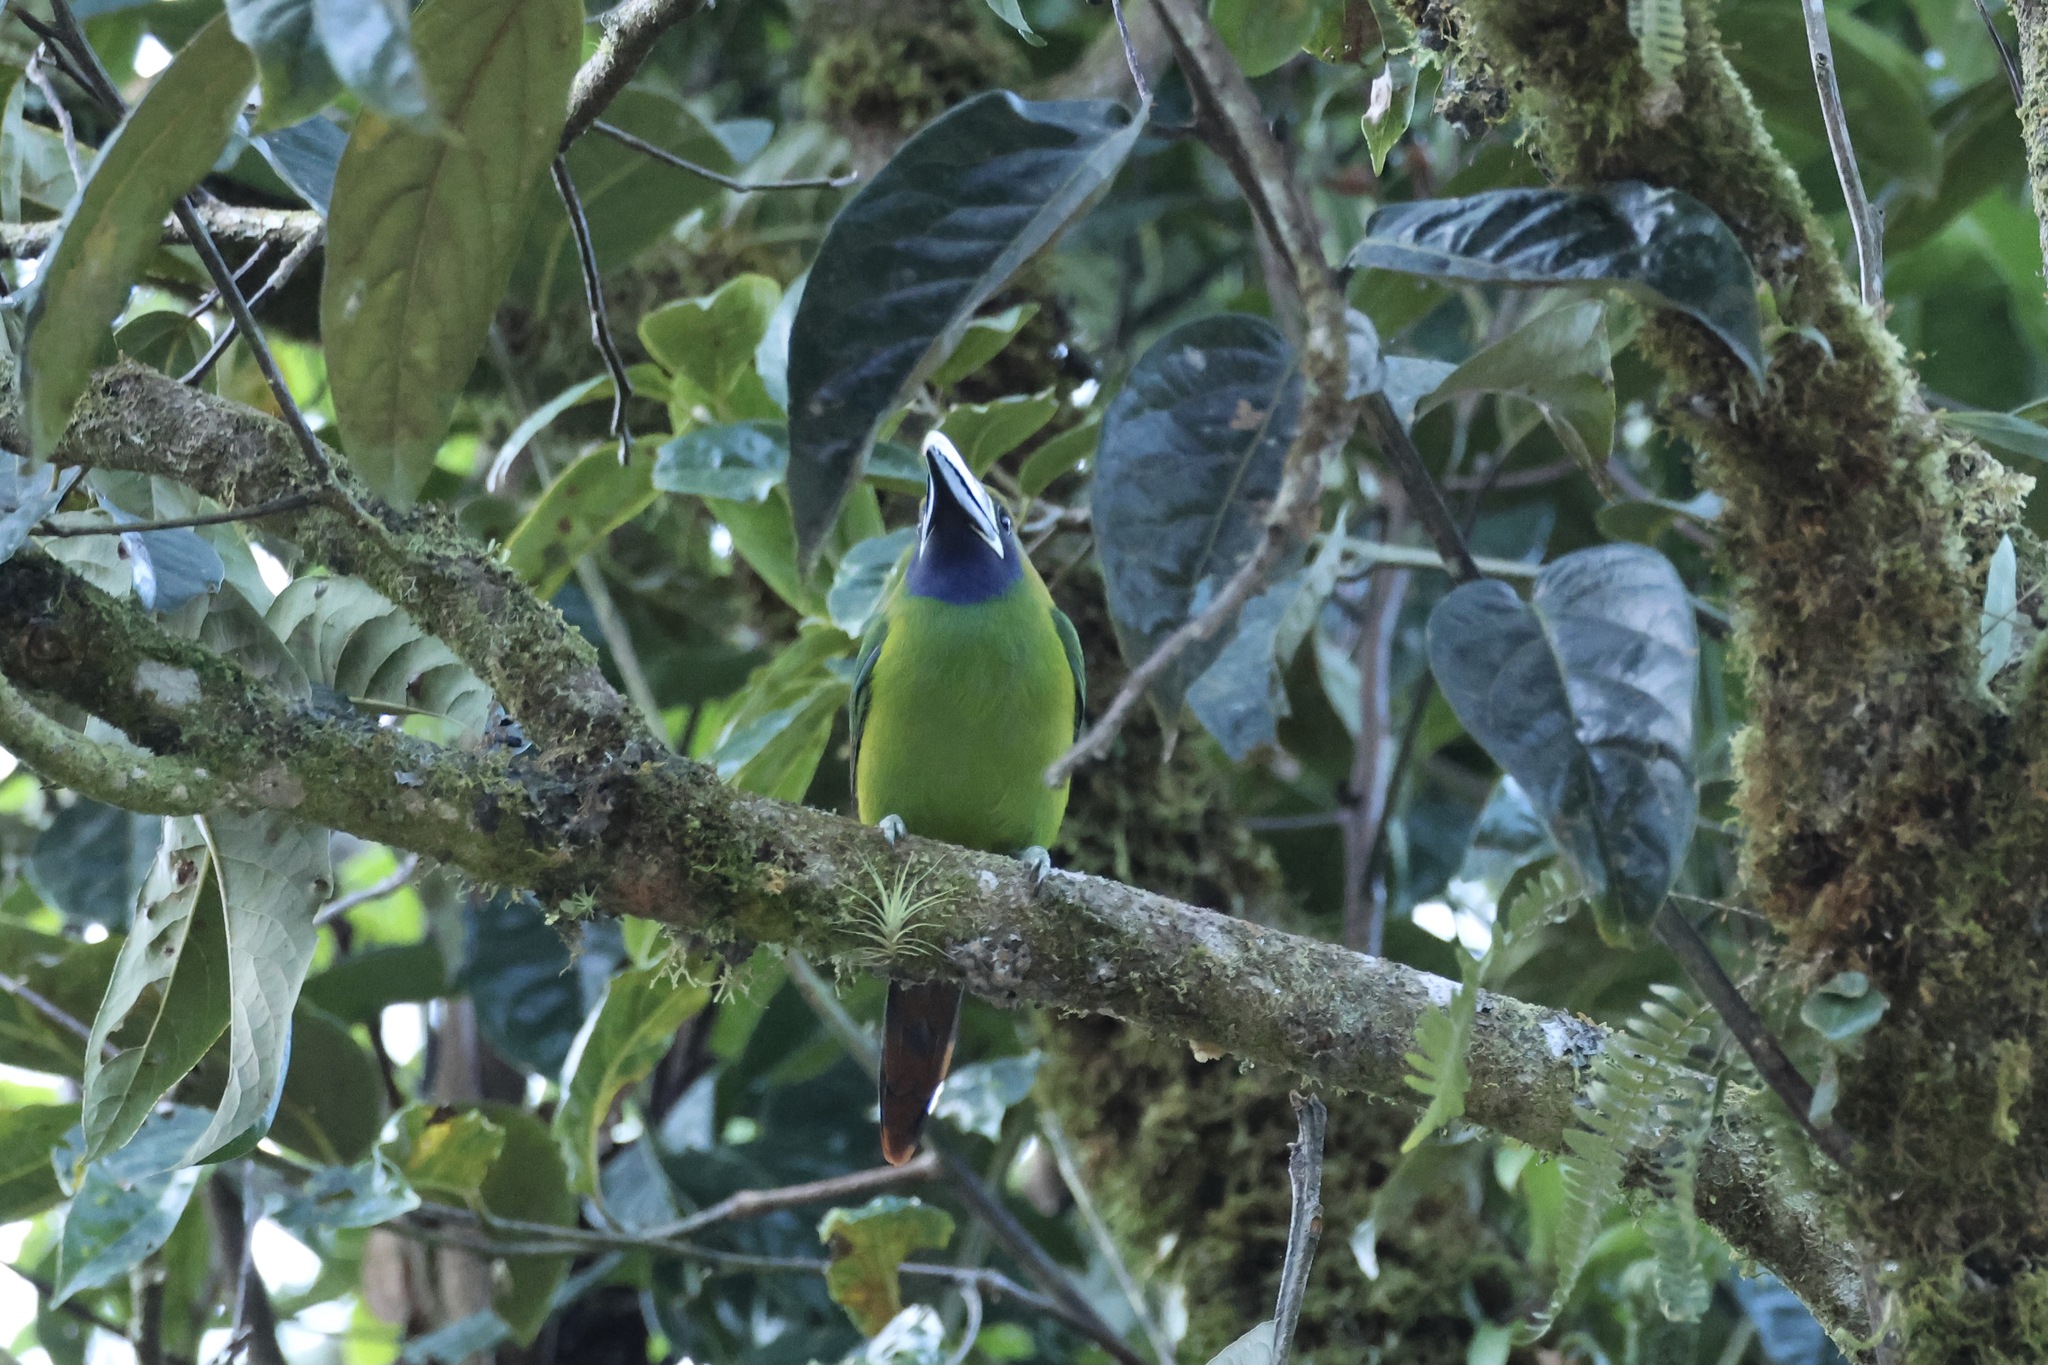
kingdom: Animalia
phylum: Chordata
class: Aves
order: Piciformes
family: Ramphastidae
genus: Aulacorhynchus
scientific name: Aulacorhynchus prasinus
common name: Emerald toucanet
